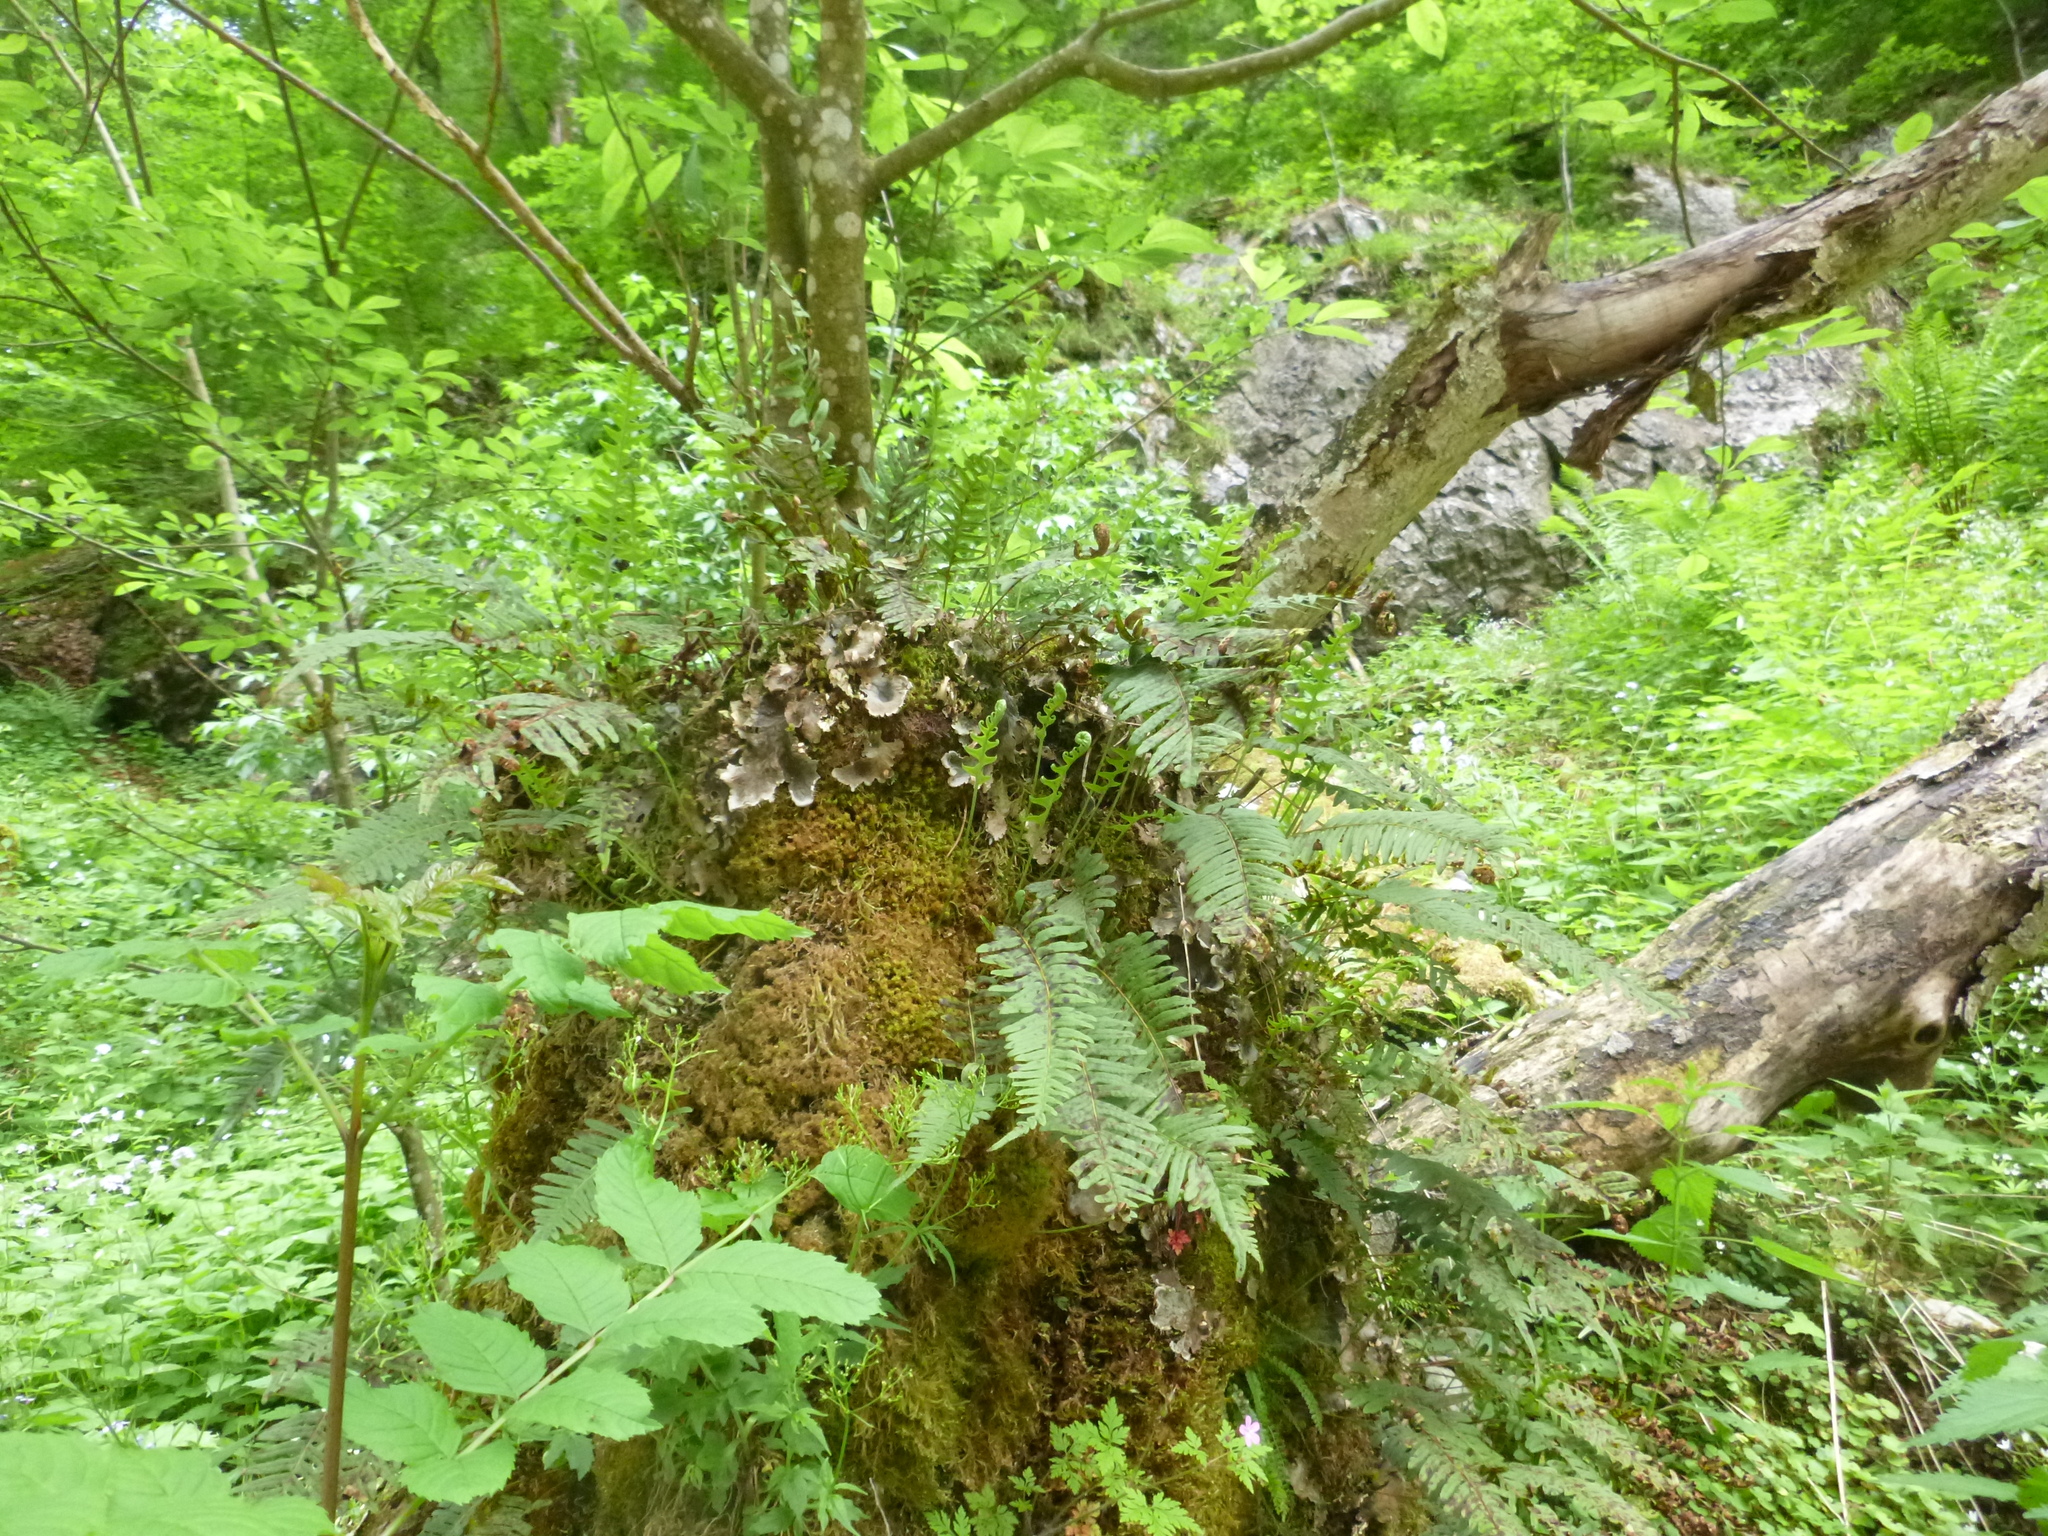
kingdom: Plantae
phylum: Tracheophyta
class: Polypodiopsida
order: Polypodiales
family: Polypodiaceae
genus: Polypodium
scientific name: Polypodium vulgare
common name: Common polypody
